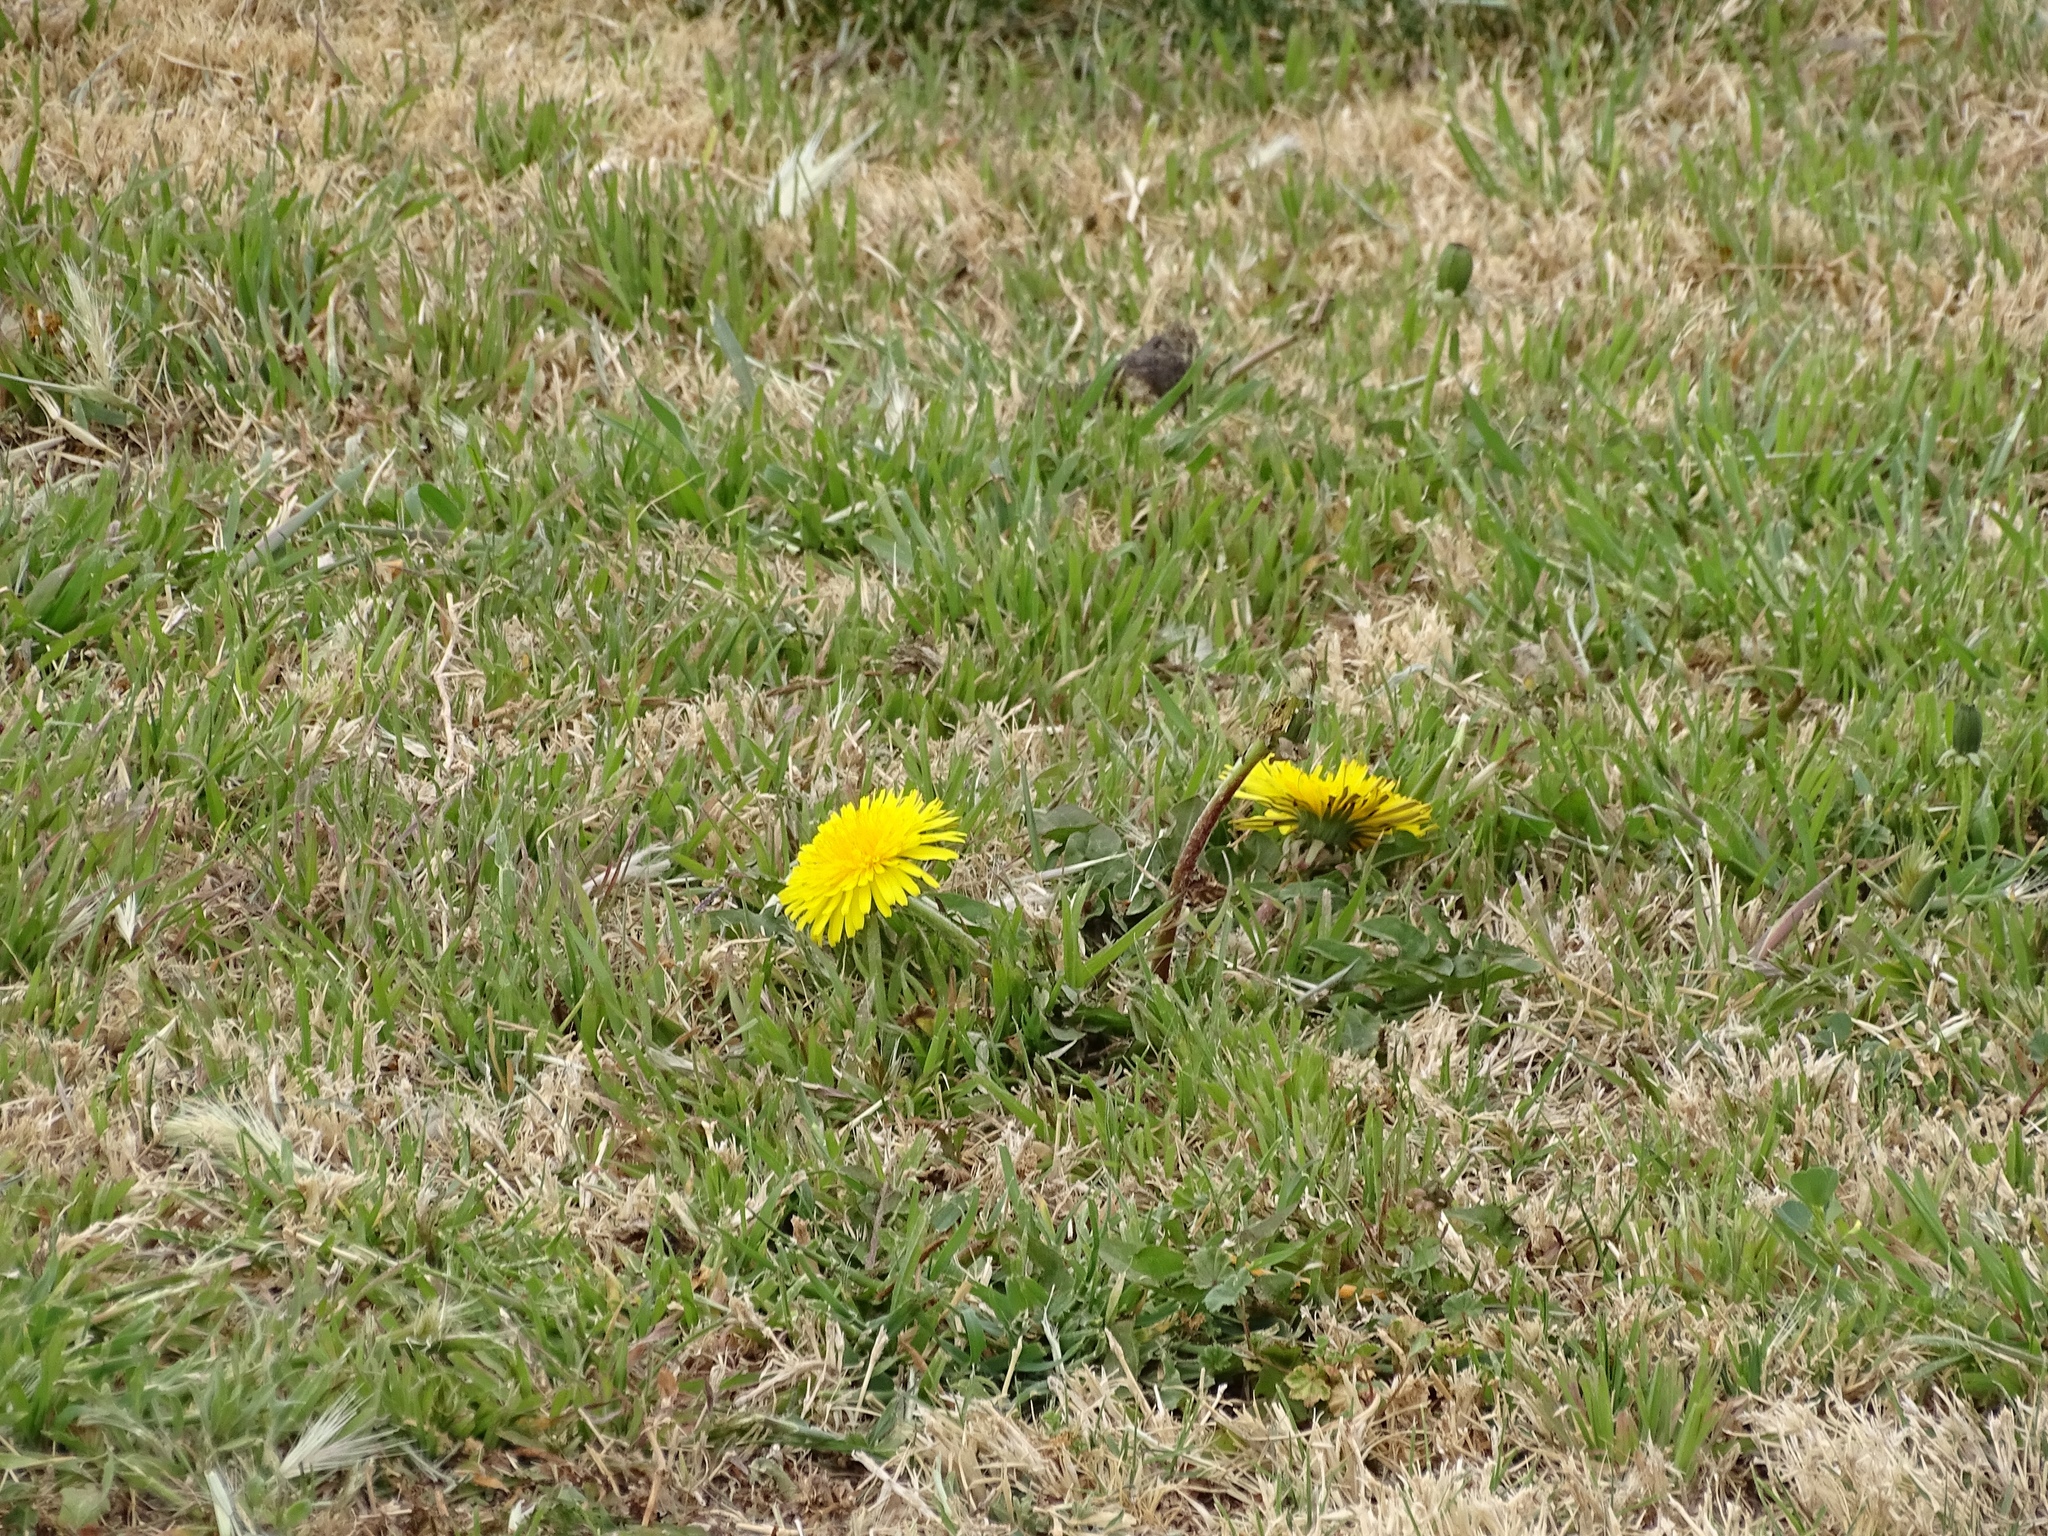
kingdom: Plantae
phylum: Tracheophyta
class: Magnoliopsida
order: Asterales
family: Asteraceae
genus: Taraxacum
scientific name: Taraxacum officinale
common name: Common dandelion
